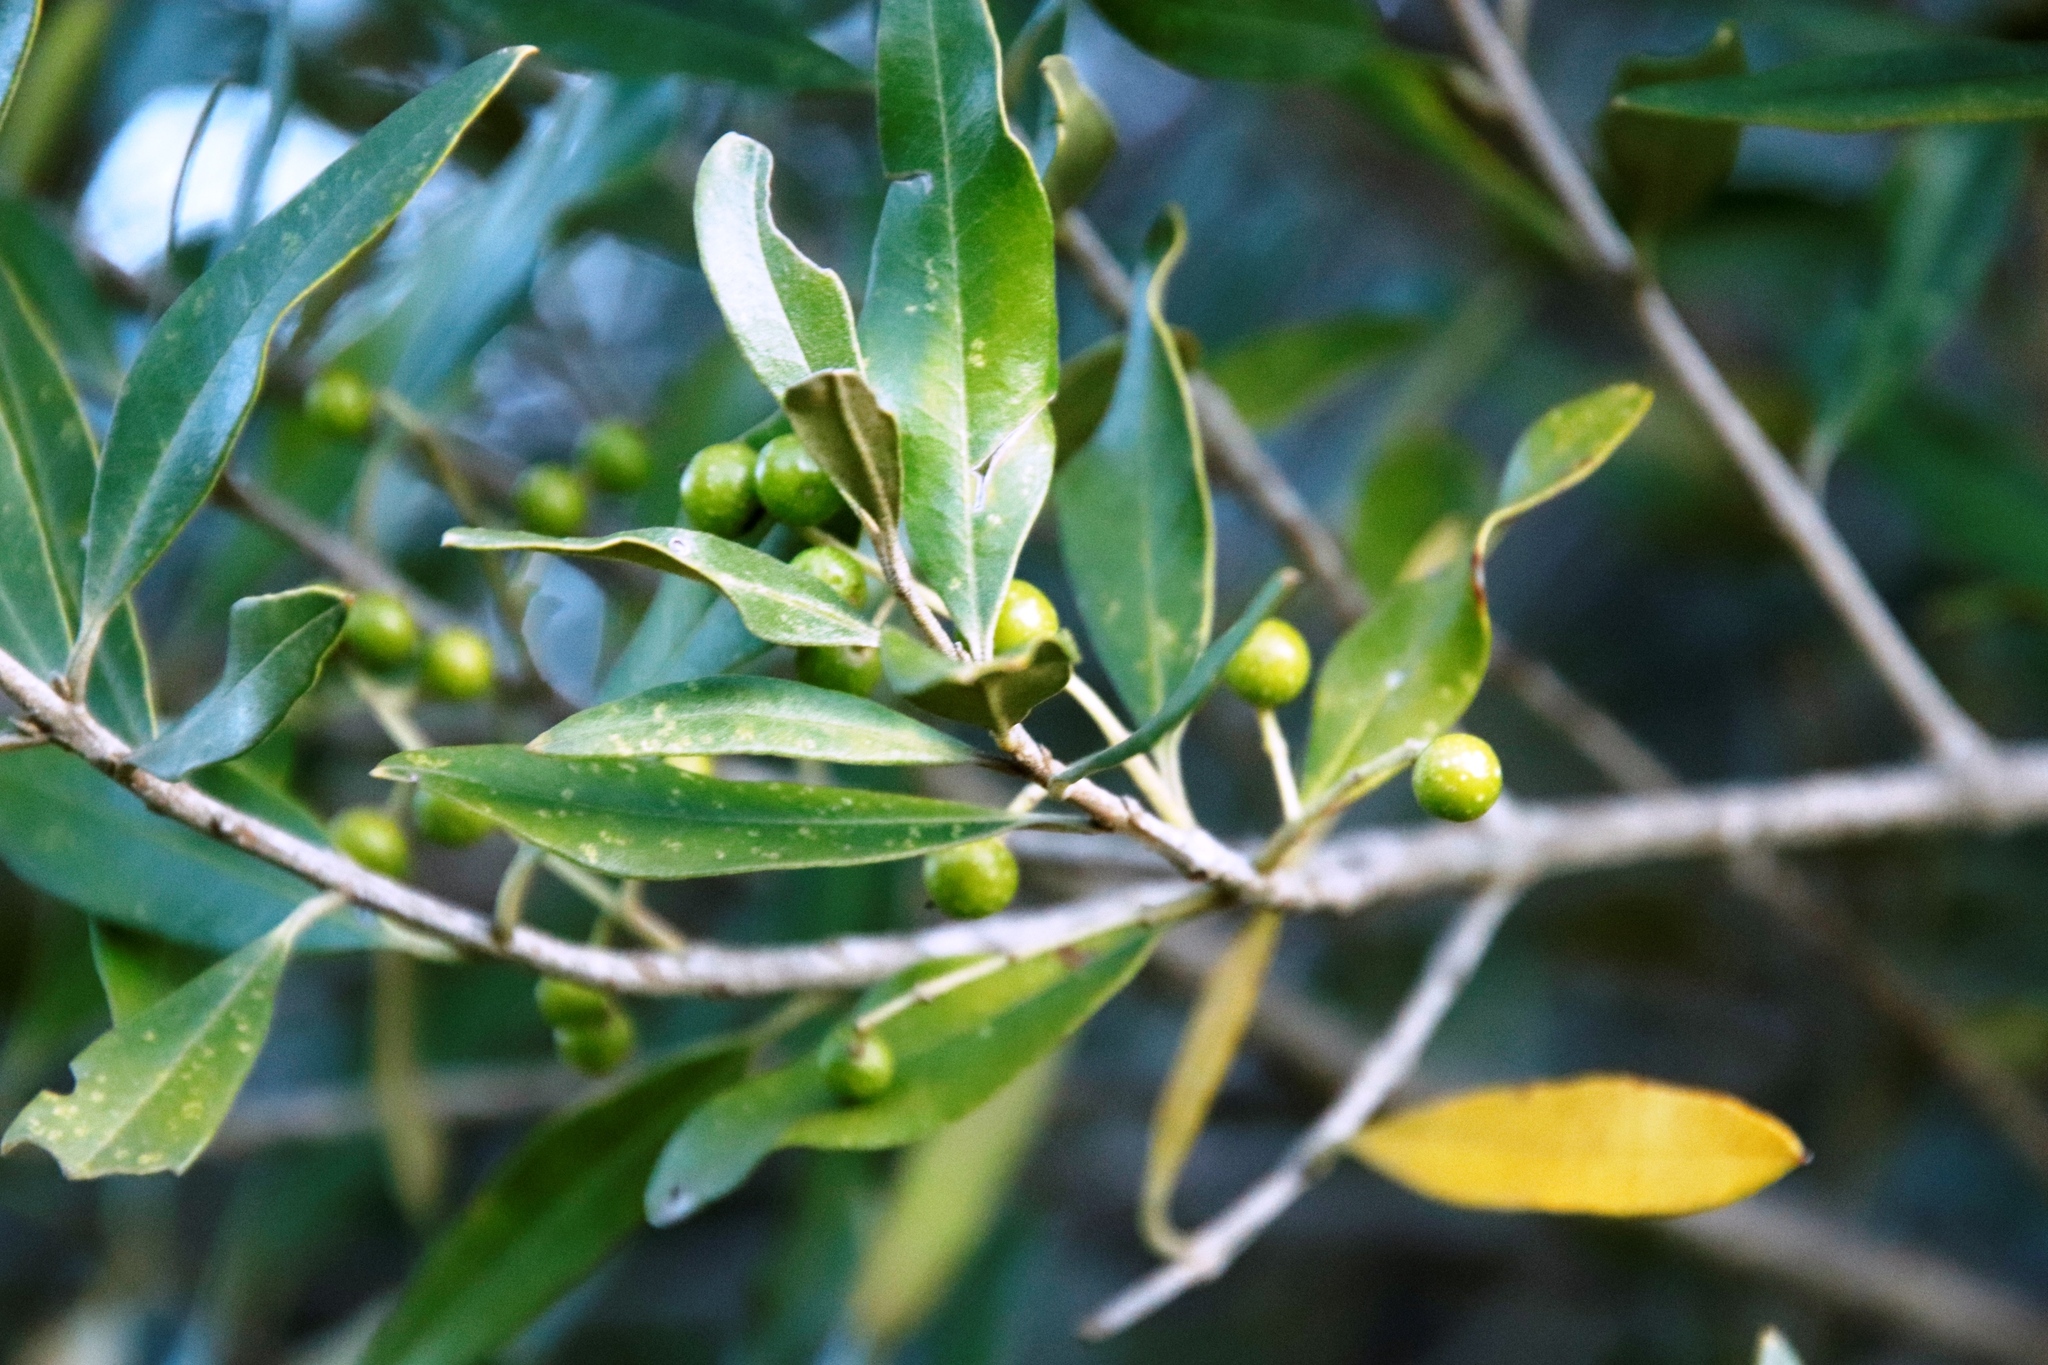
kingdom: Plantae
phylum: Tracheophyta
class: Magnoliopsida
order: Lamiales
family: Oleaceae
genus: Olea
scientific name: Olea europaea
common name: Olive
